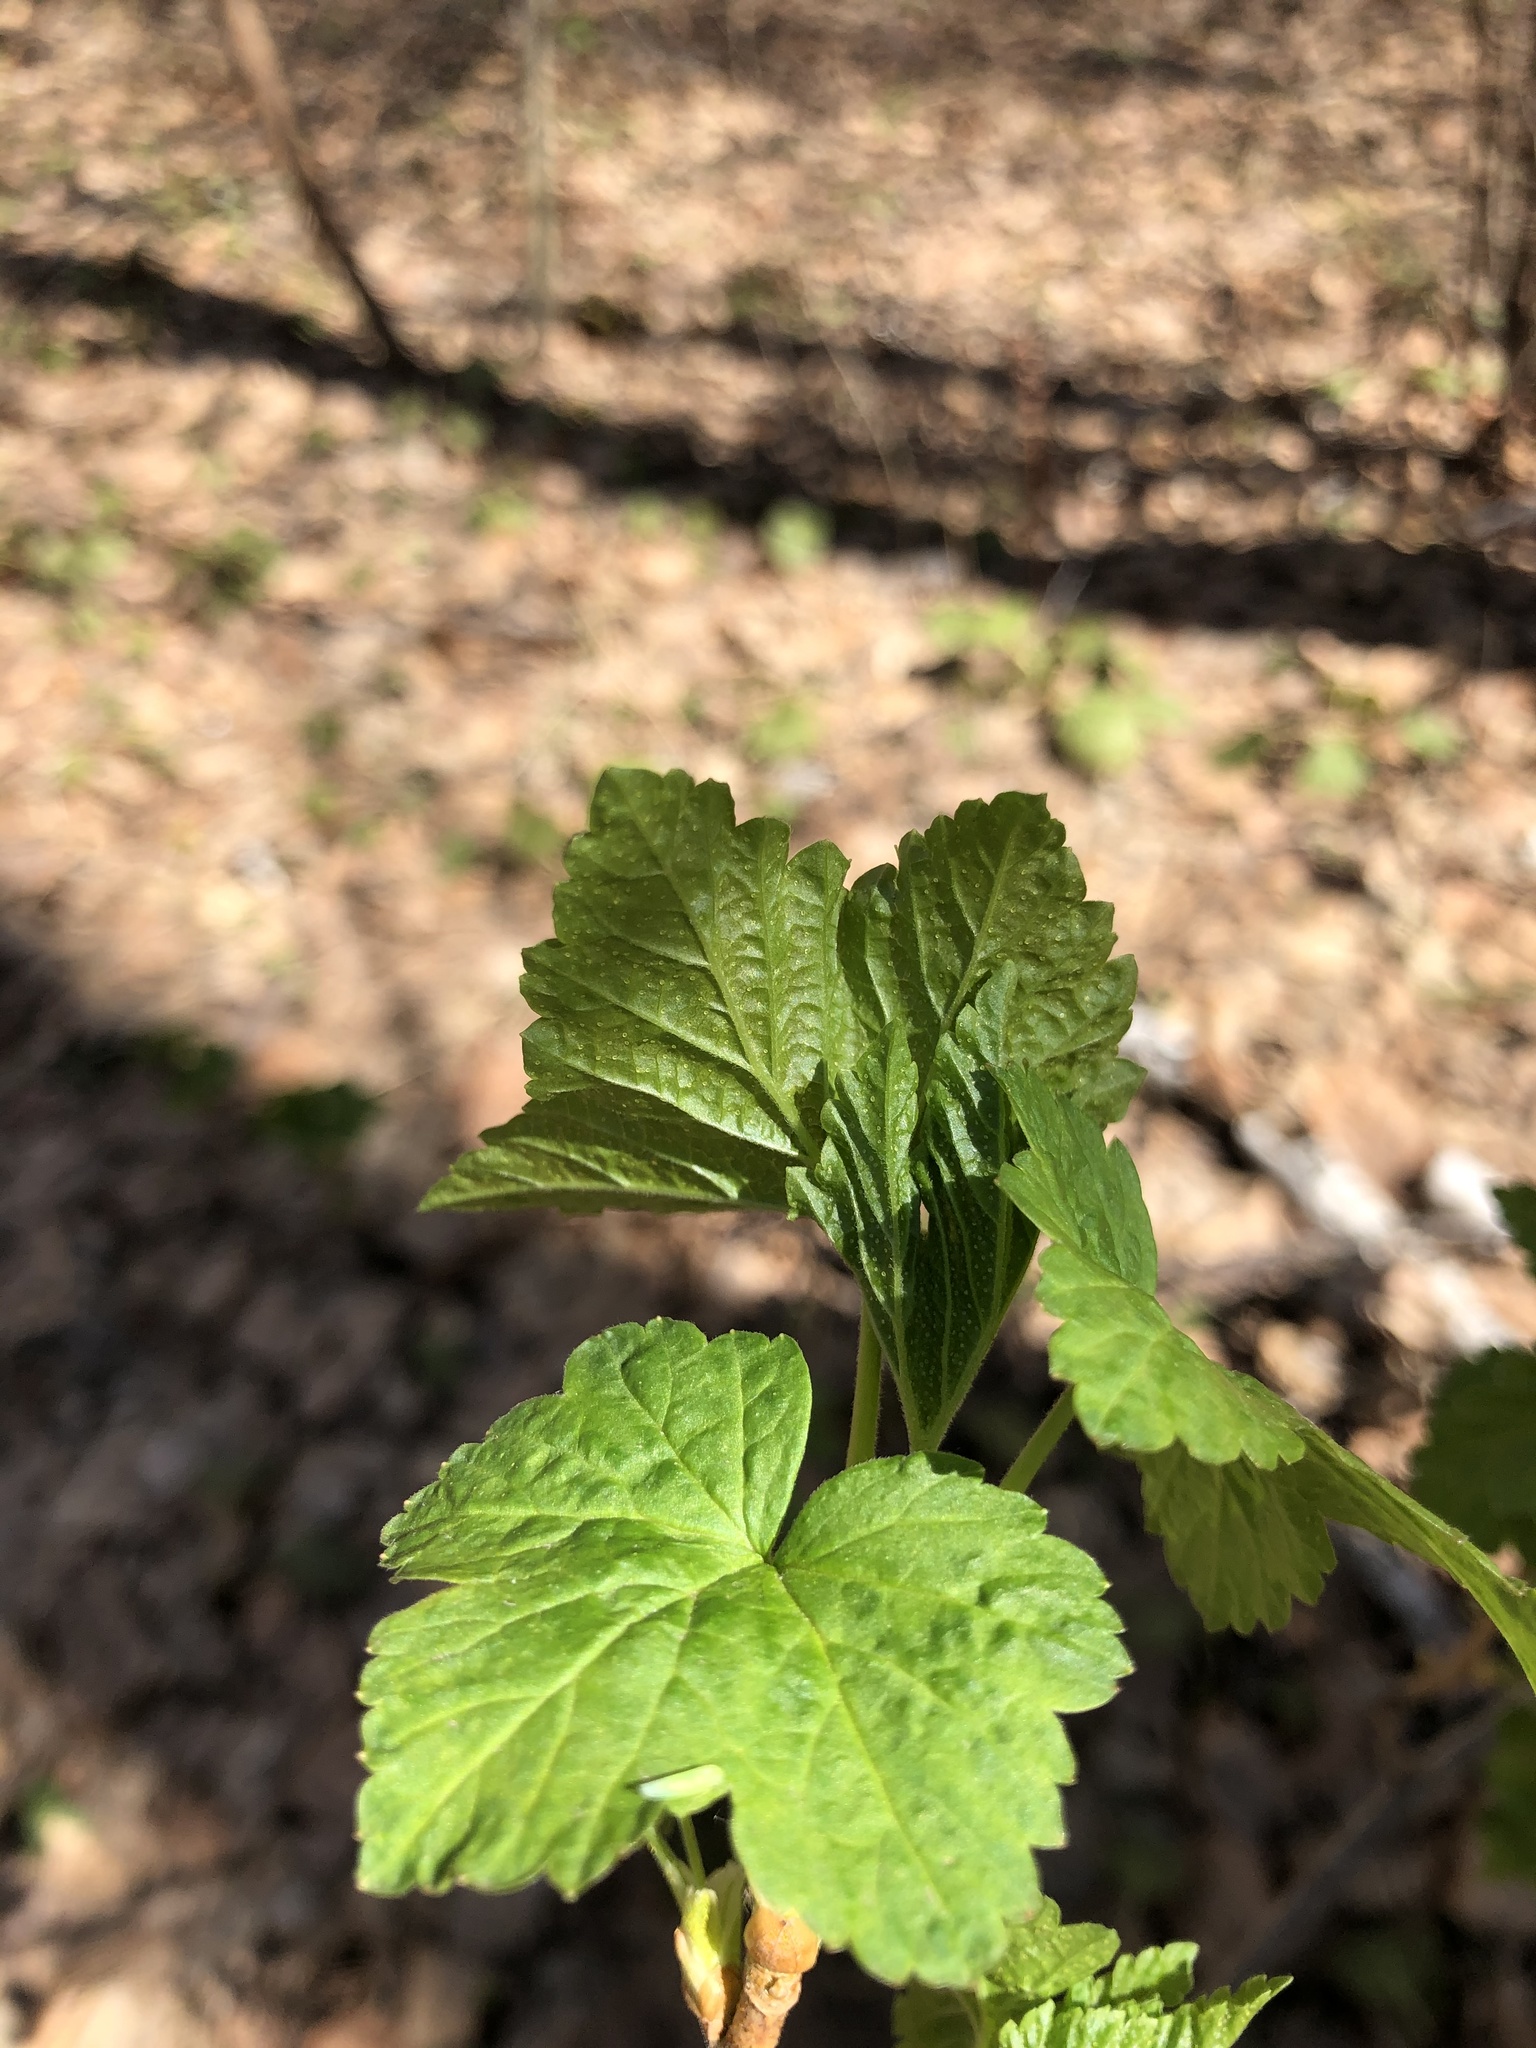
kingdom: Plantae
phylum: Tracheophyta
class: Magnoliopsida
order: Saxifragales
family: Grossulariaceae
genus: Ribes
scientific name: Ribes nigrum
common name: Black currant
